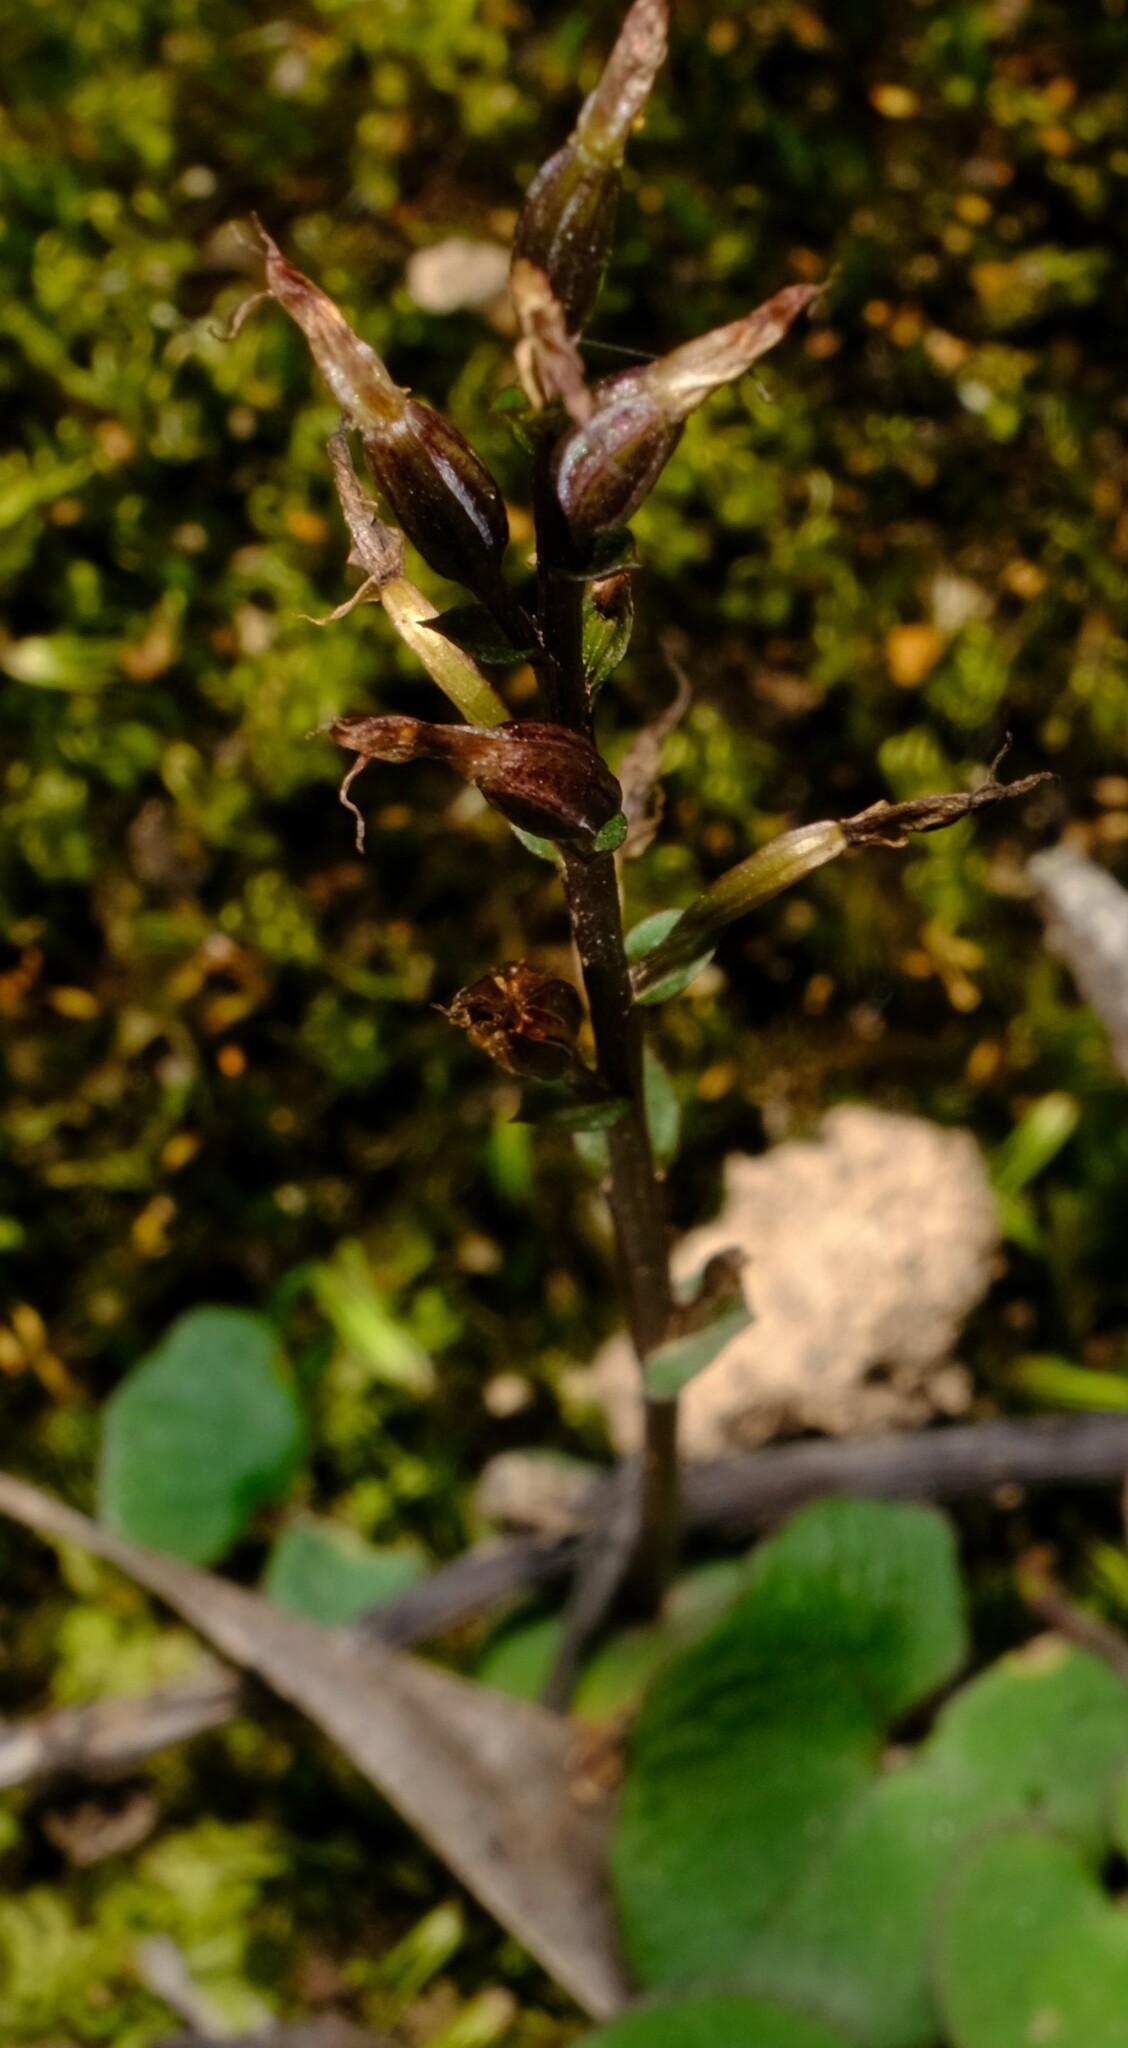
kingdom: Plantae
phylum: Tracheophyta
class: Liliopsida
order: Asparagales
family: Orchidaceae
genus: Acianthus
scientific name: Acianthus pusillus
